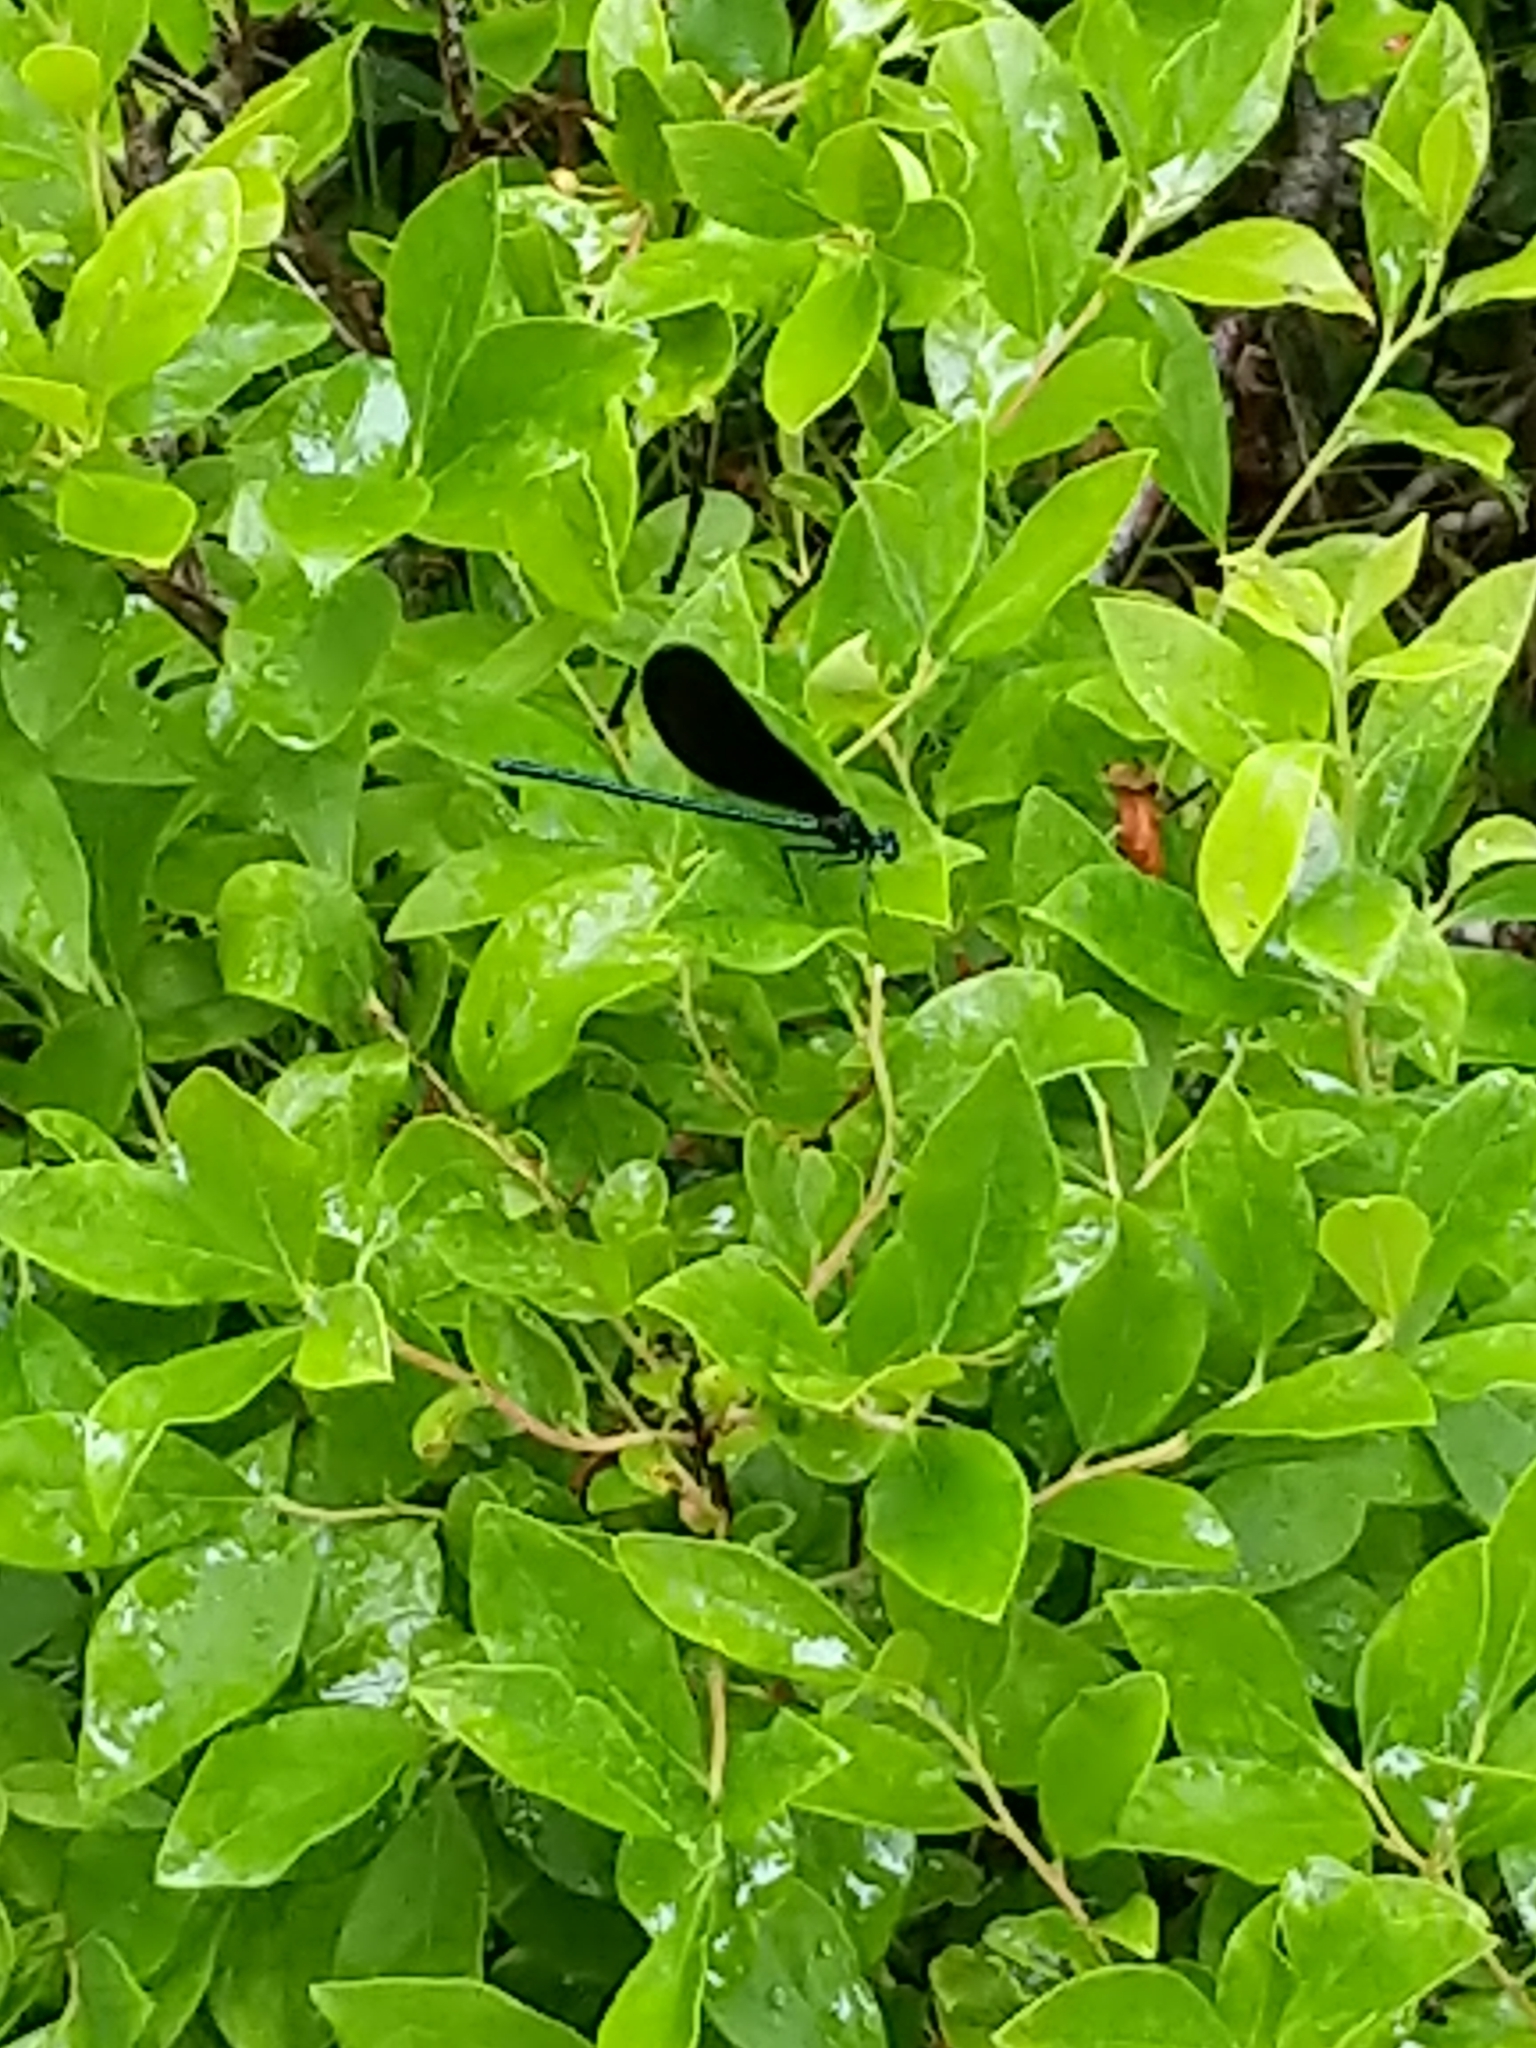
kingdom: Animalia
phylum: Arthropoda
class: Insecta
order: Odonata
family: Calopterygidae
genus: Calopteryx
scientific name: Calopteryx maculata
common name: Ebony jewelwing
